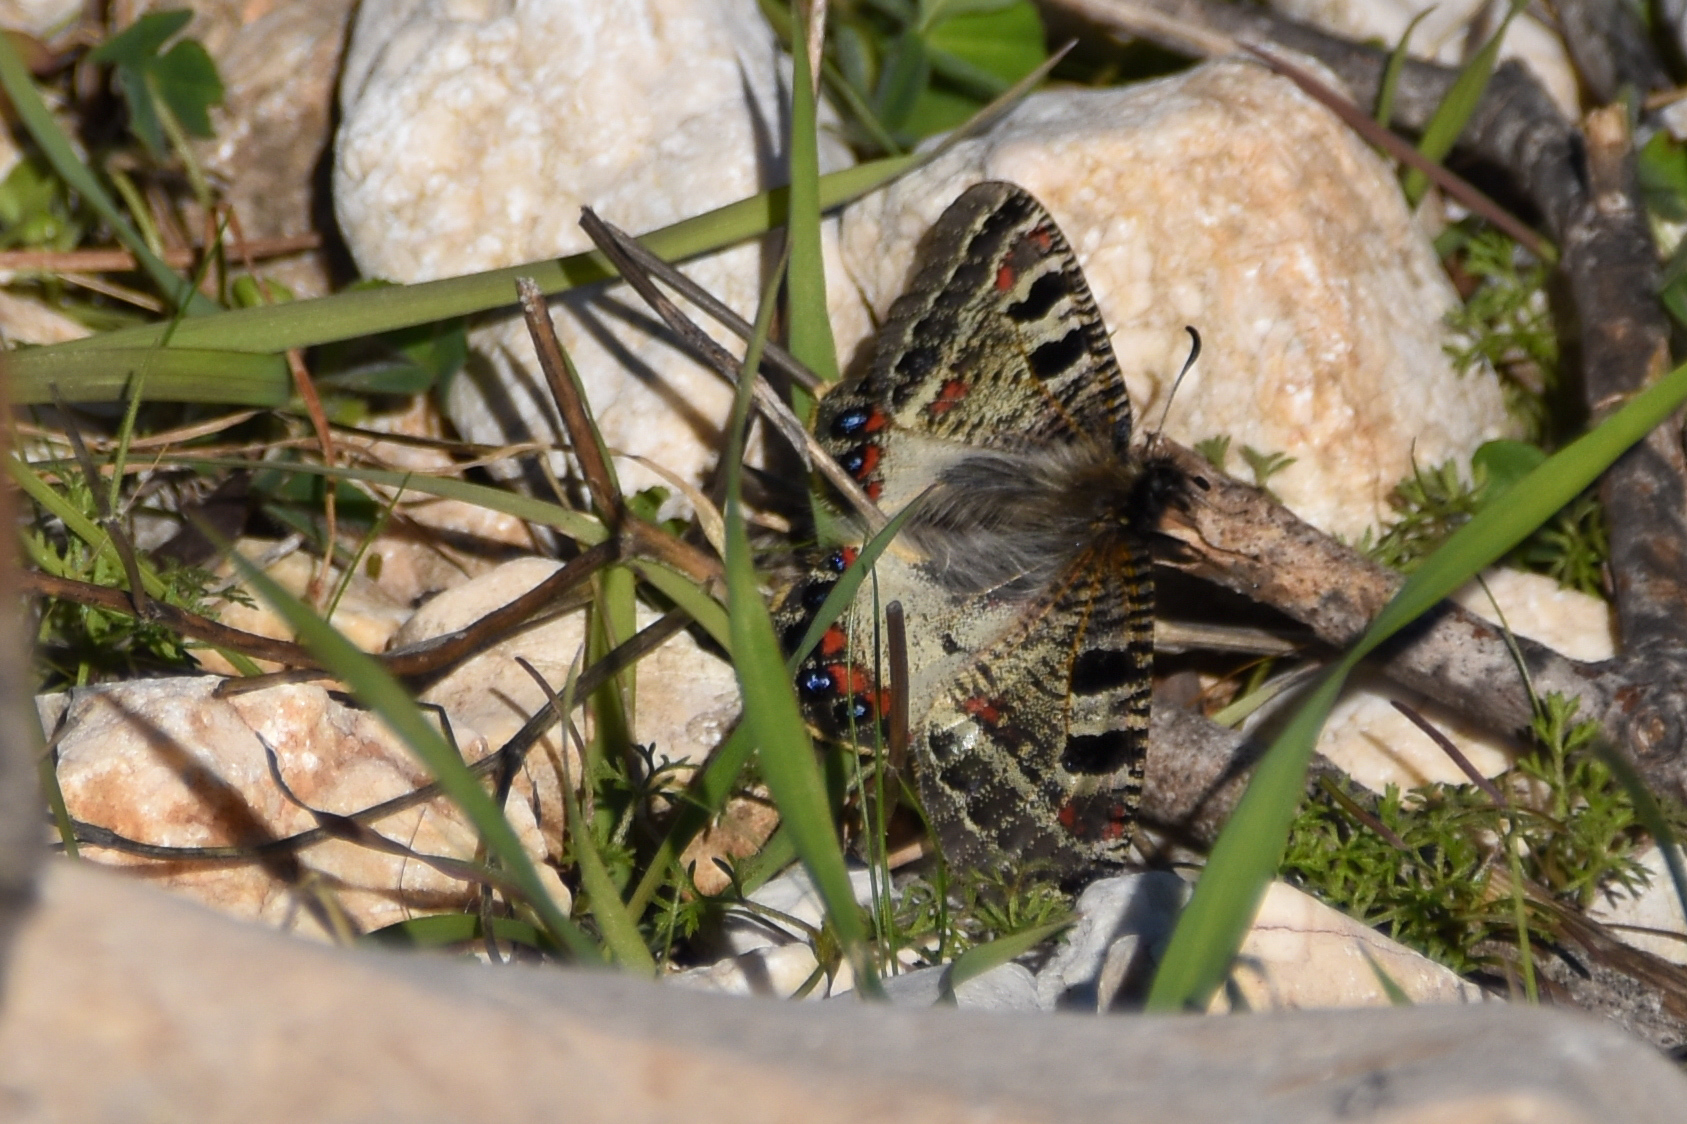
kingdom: Animalia
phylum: Arthropoda
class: Insecta
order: Lepidoptera
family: Papilionidae
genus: Archon
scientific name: Archon apollinus
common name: False apollo
